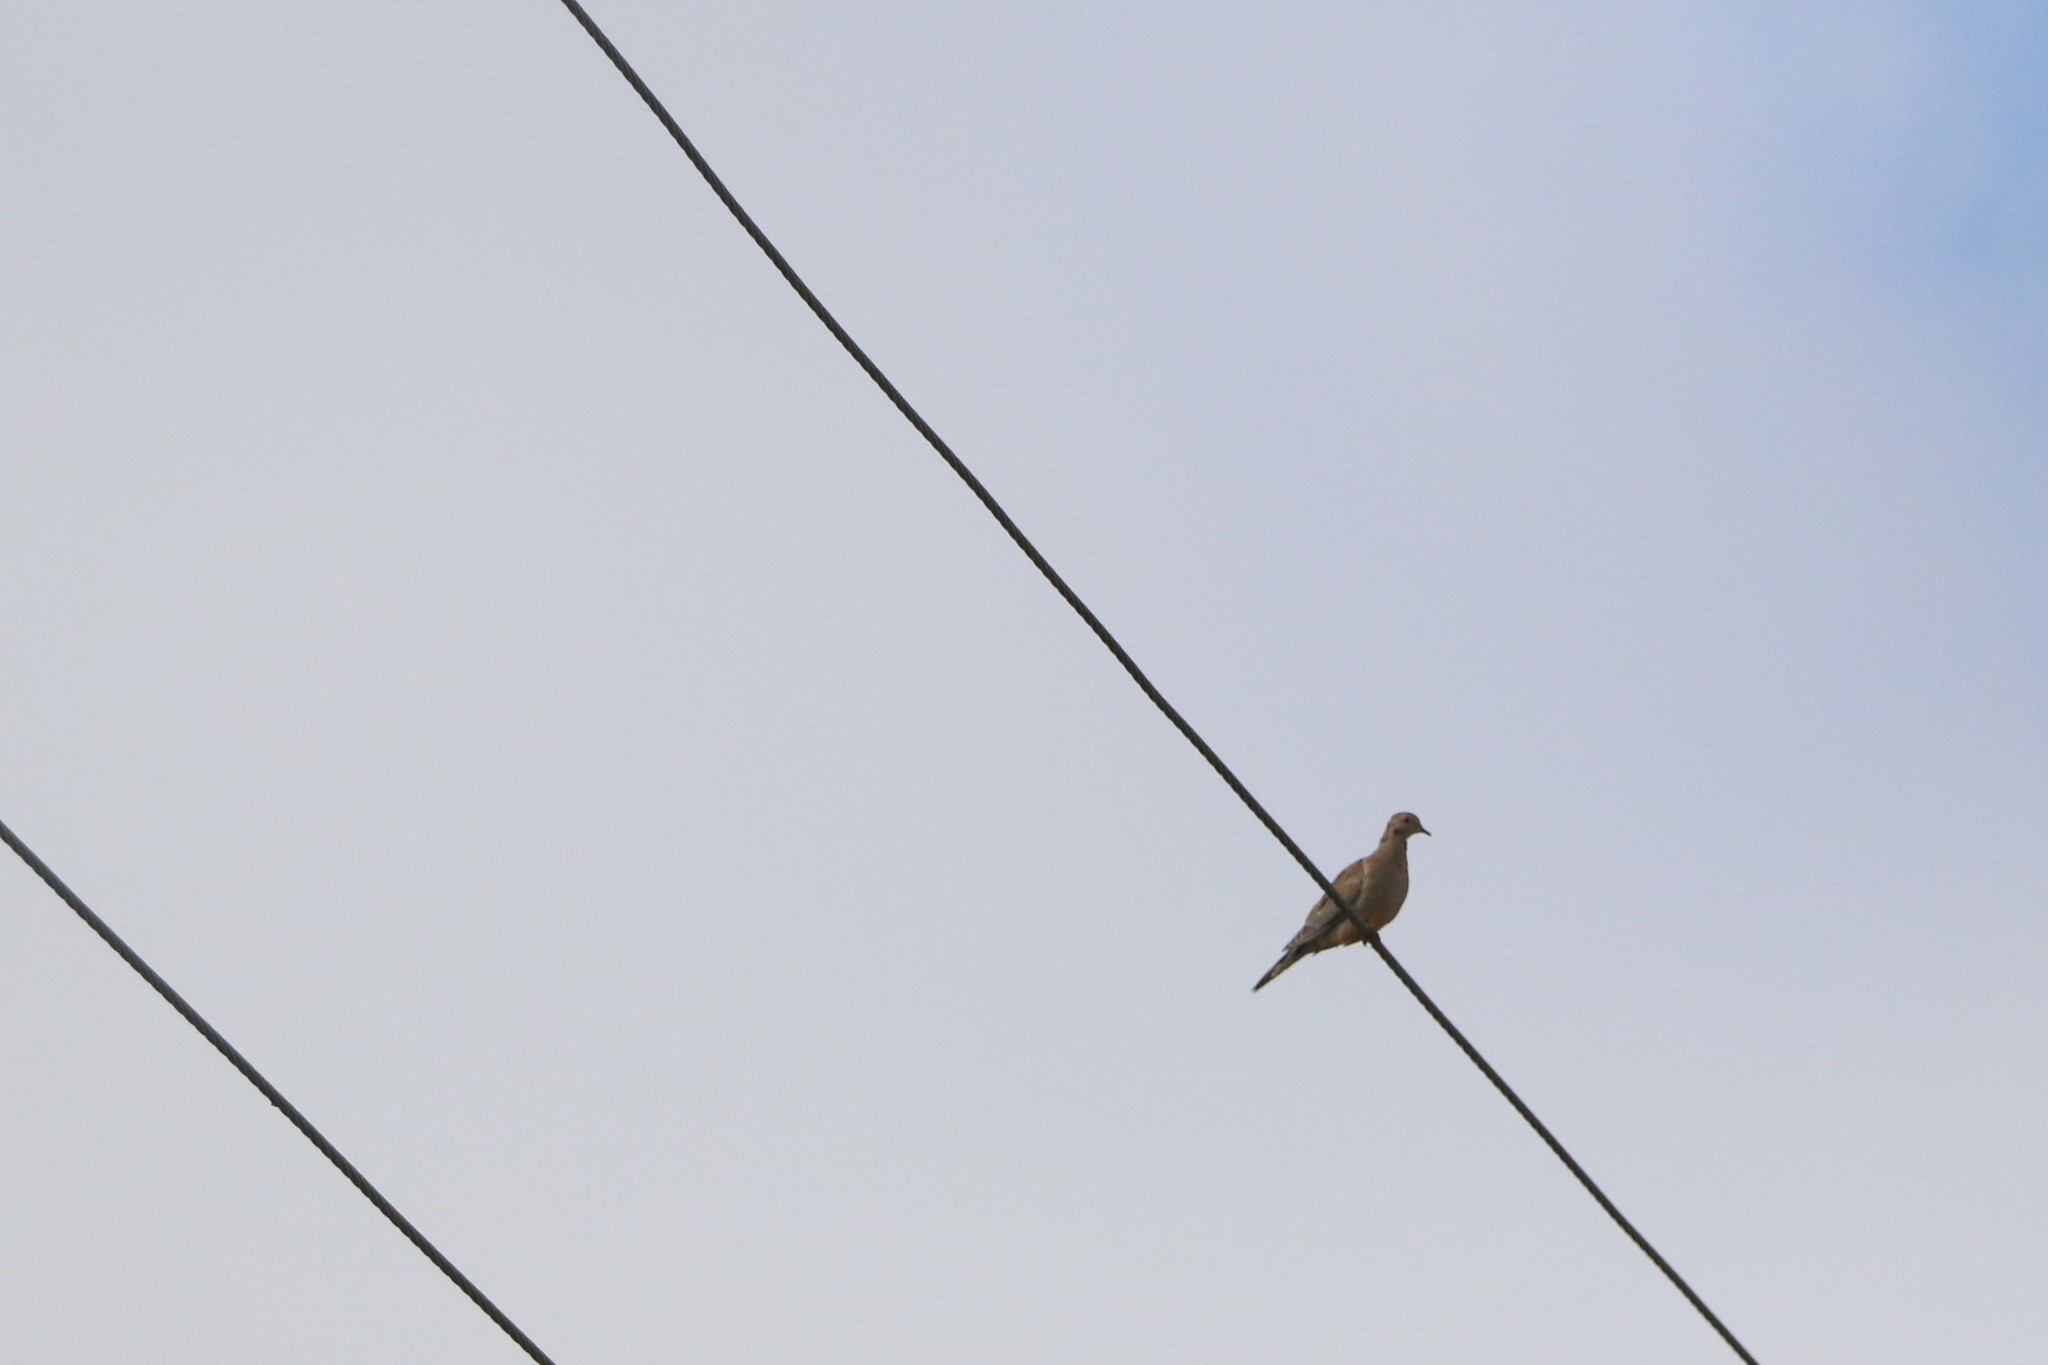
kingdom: Animalia
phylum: Chordata
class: Aves
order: Columbiformes
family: Columbidae
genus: Zenaida
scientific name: Zenaida macroura
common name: Mourning dove
